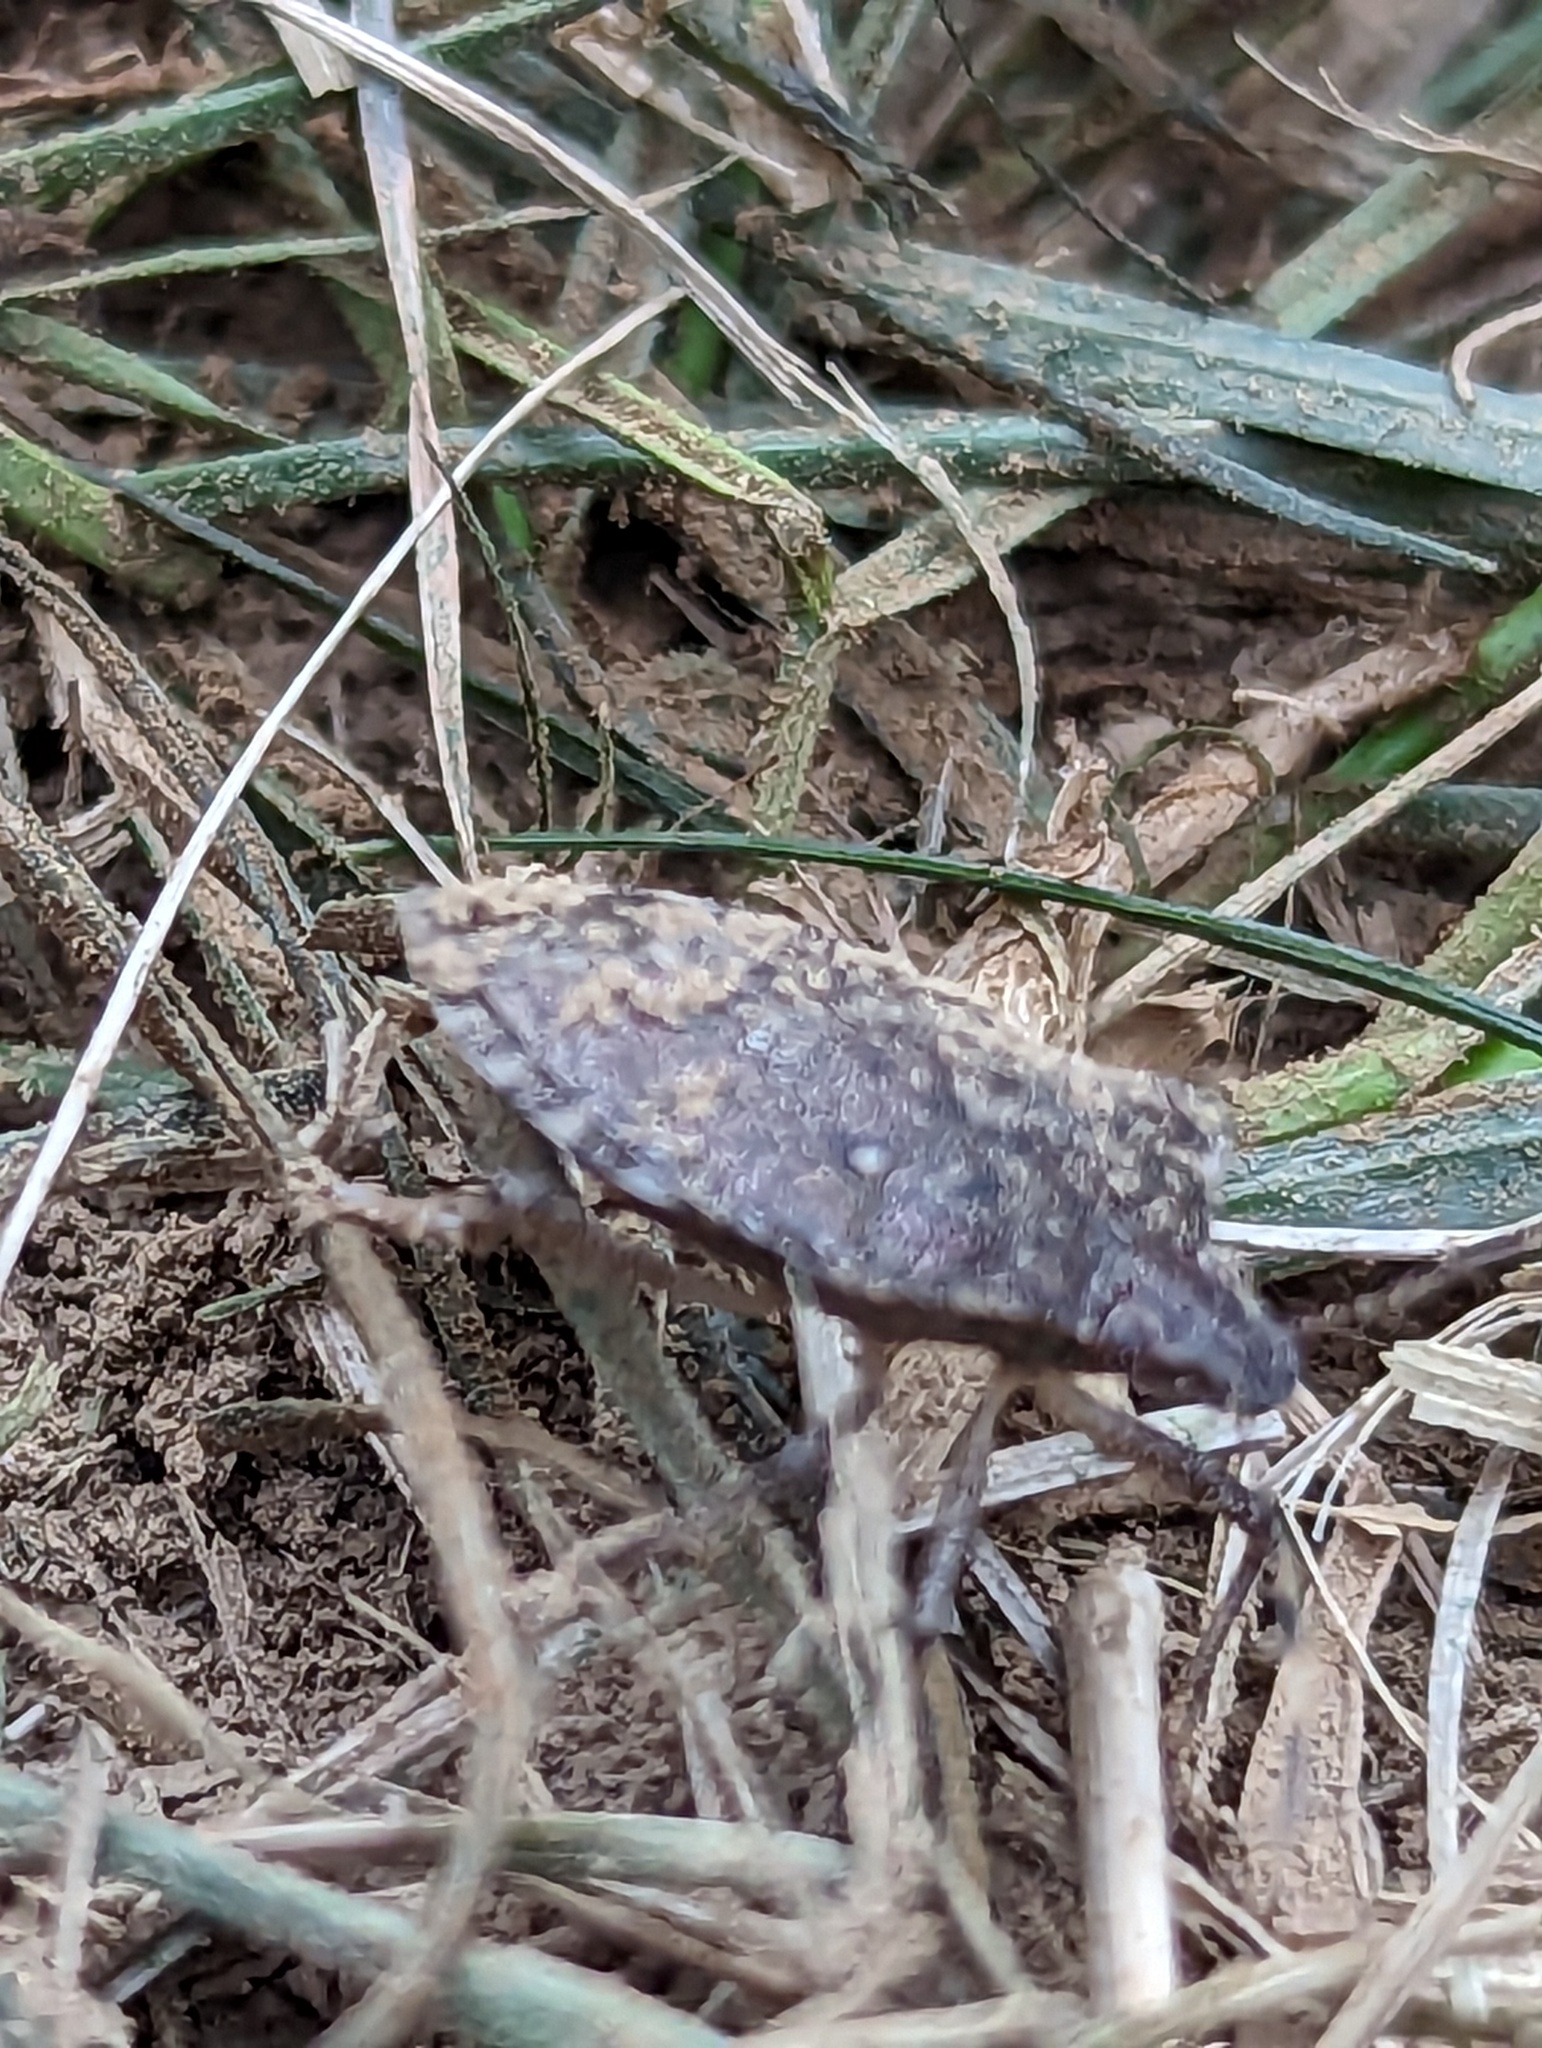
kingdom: Animalia
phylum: Arthropoda
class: Insecta
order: Hemiptera
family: Pentatomidae
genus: Halyomorpha
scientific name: Halyomorpha halys
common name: Brown marmorated stink bug
